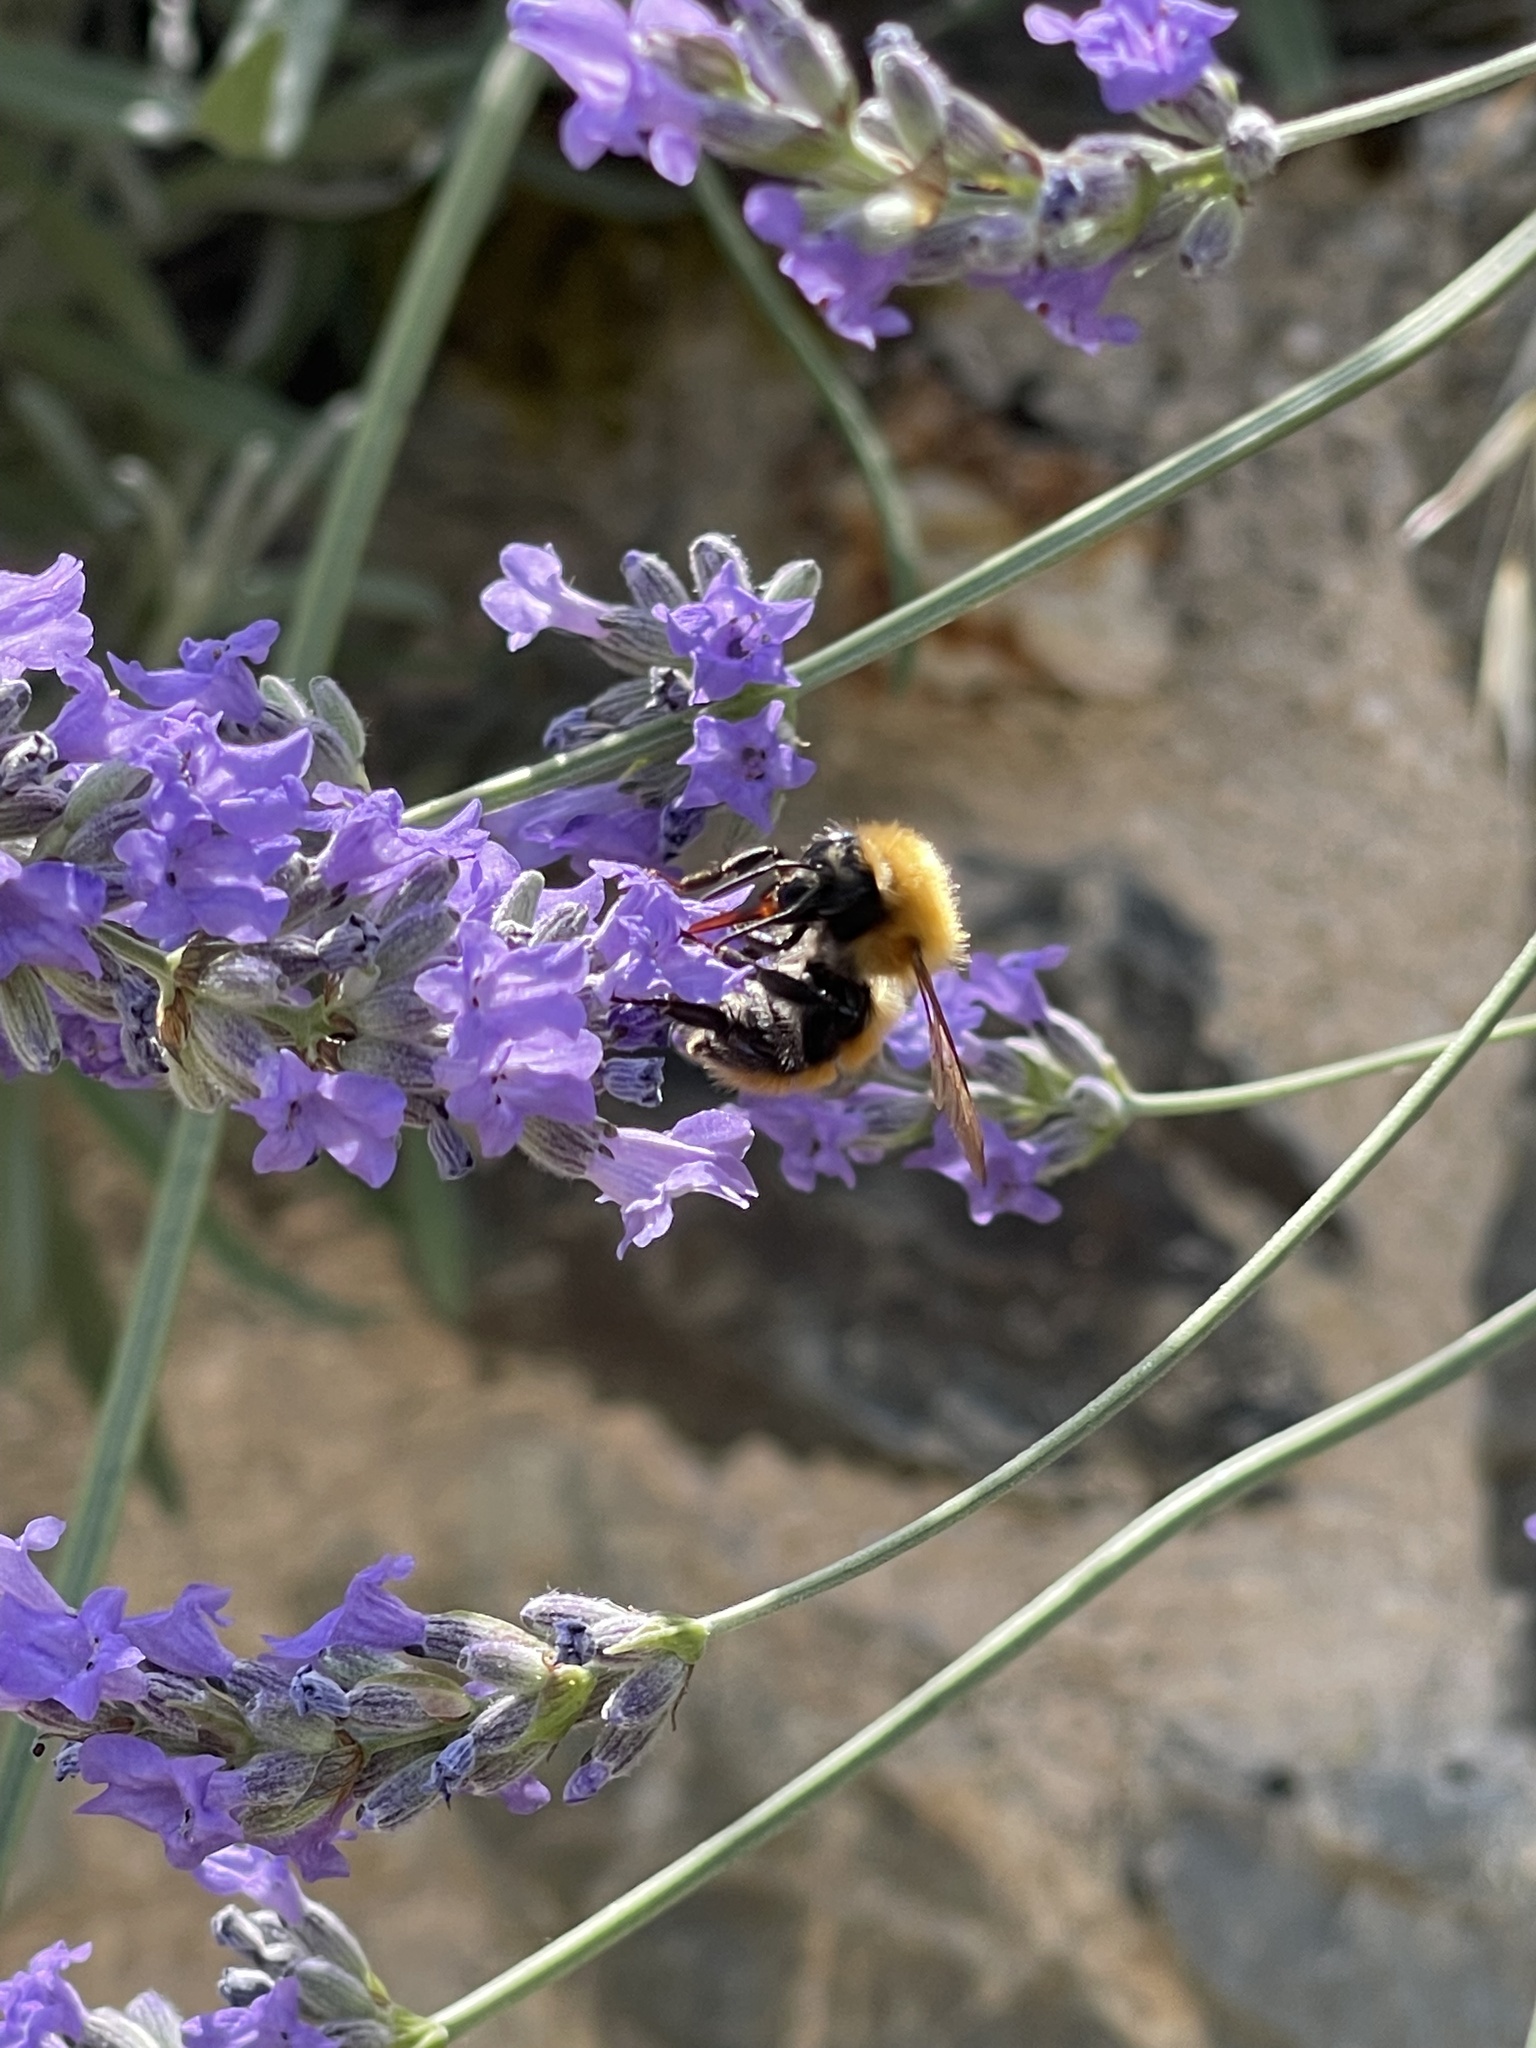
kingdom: Animalia
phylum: Arthropoda
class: Insecta
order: Hymenoptera
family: Apidae
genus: Bombus
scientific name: Bombus pascuorum
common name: Common carder bee
